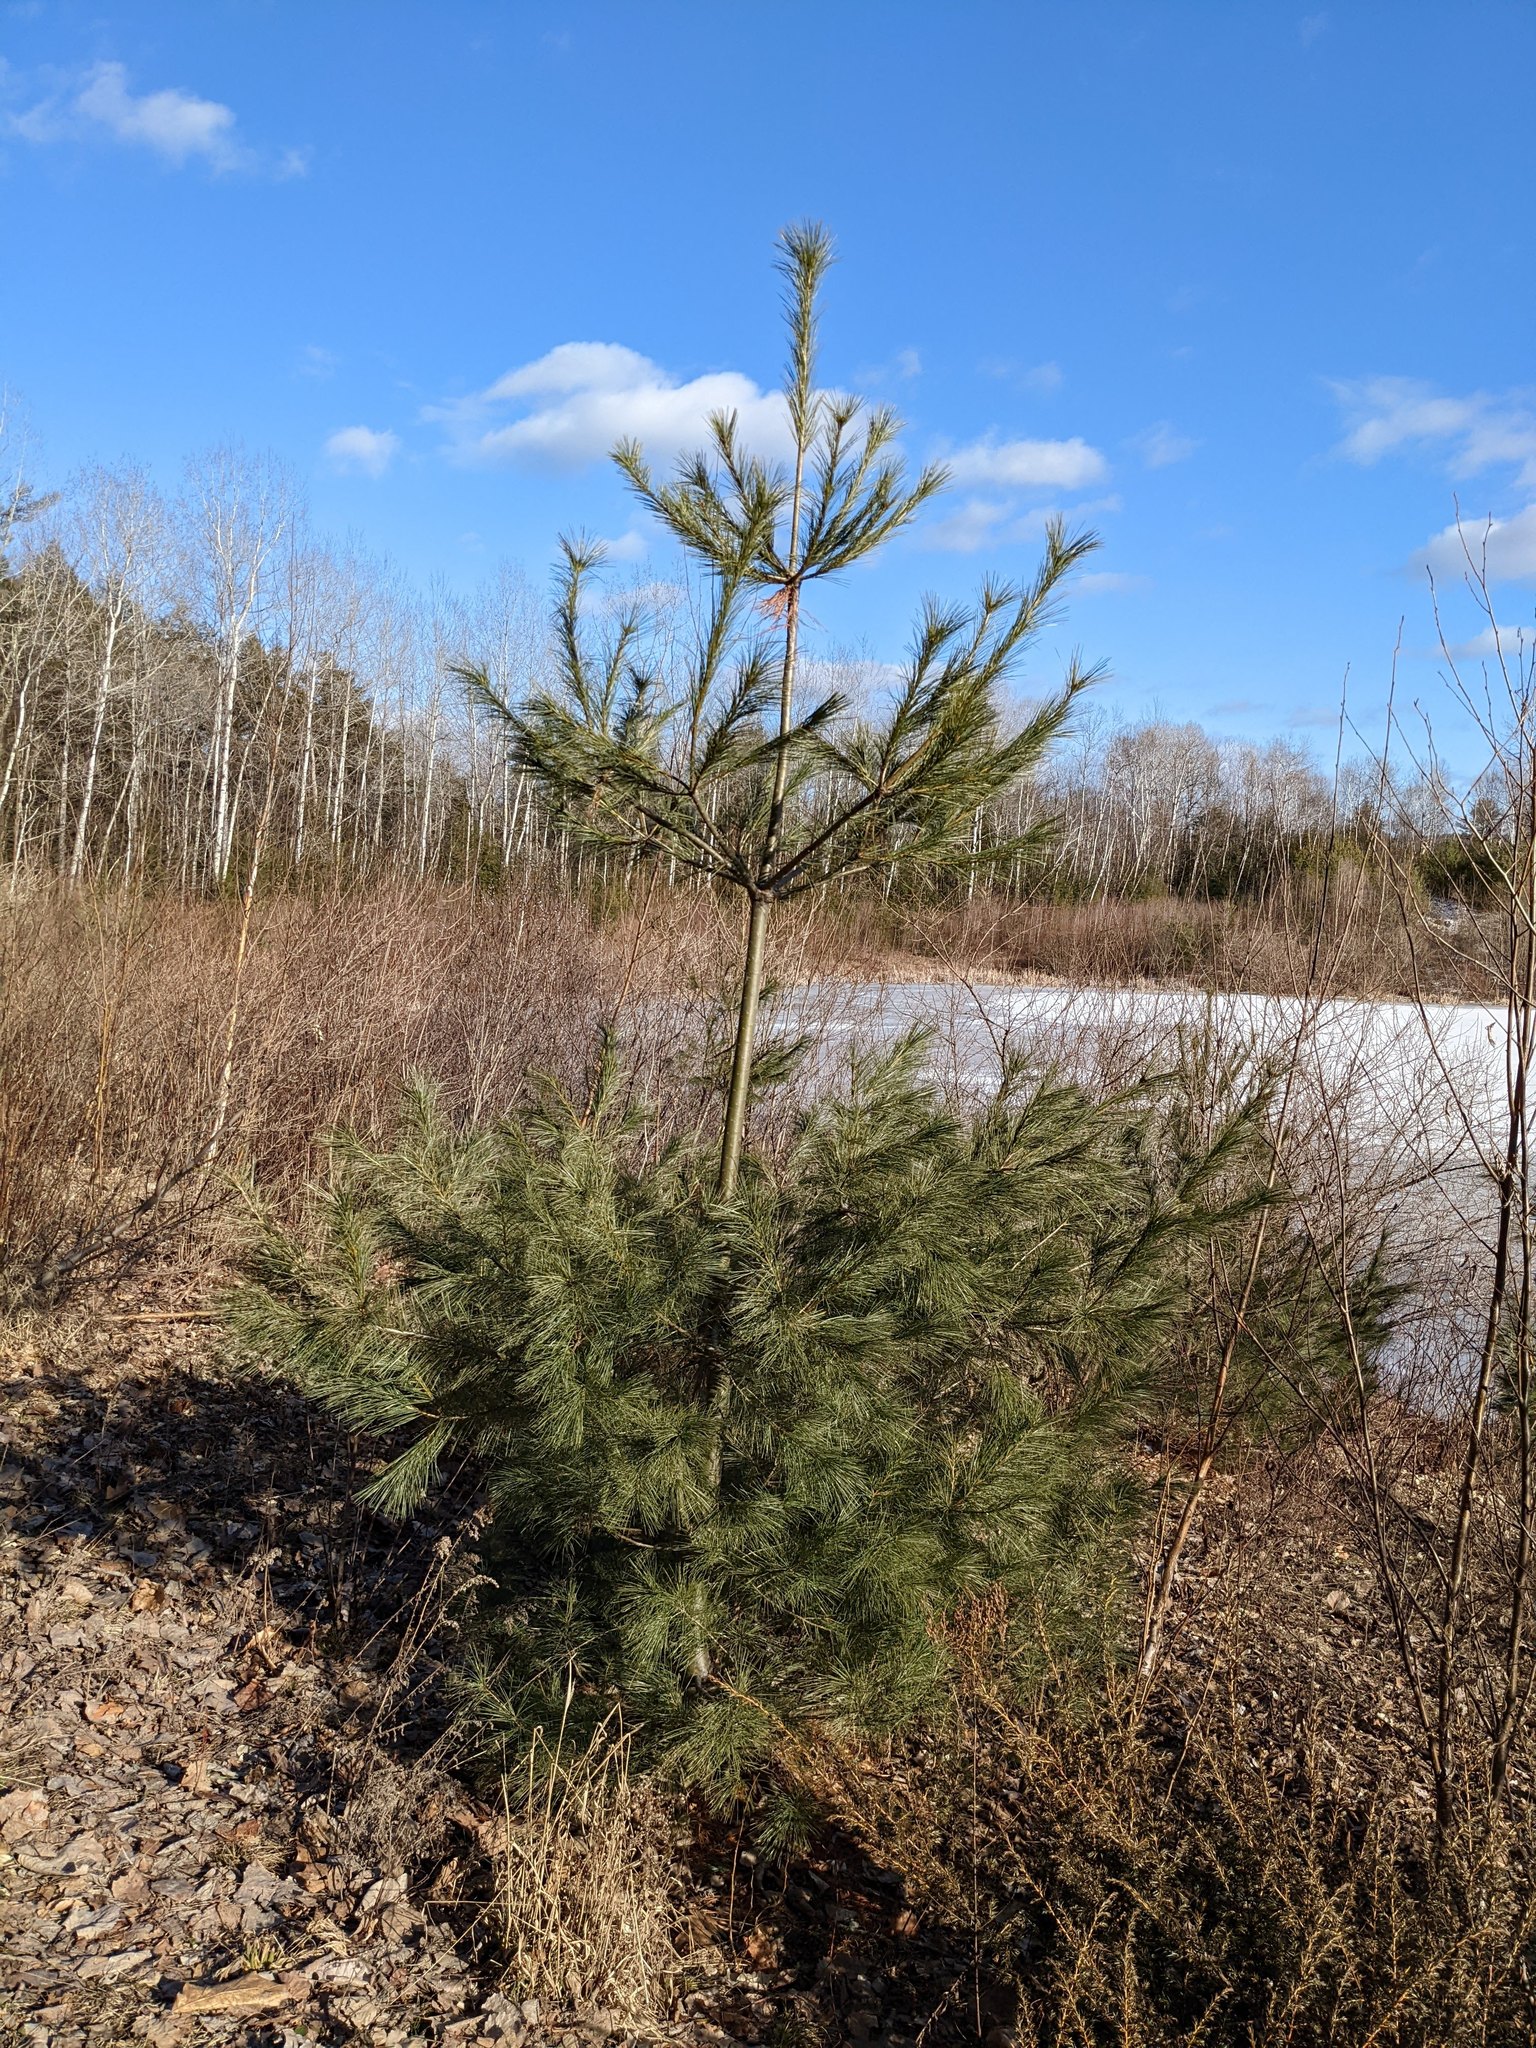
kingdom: Plantae
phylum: Tracheophyta
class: Pinopsida
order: Pinales
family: Pinaceae
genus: Pinus
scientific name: Pinus strobus
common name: Weymouth pine
